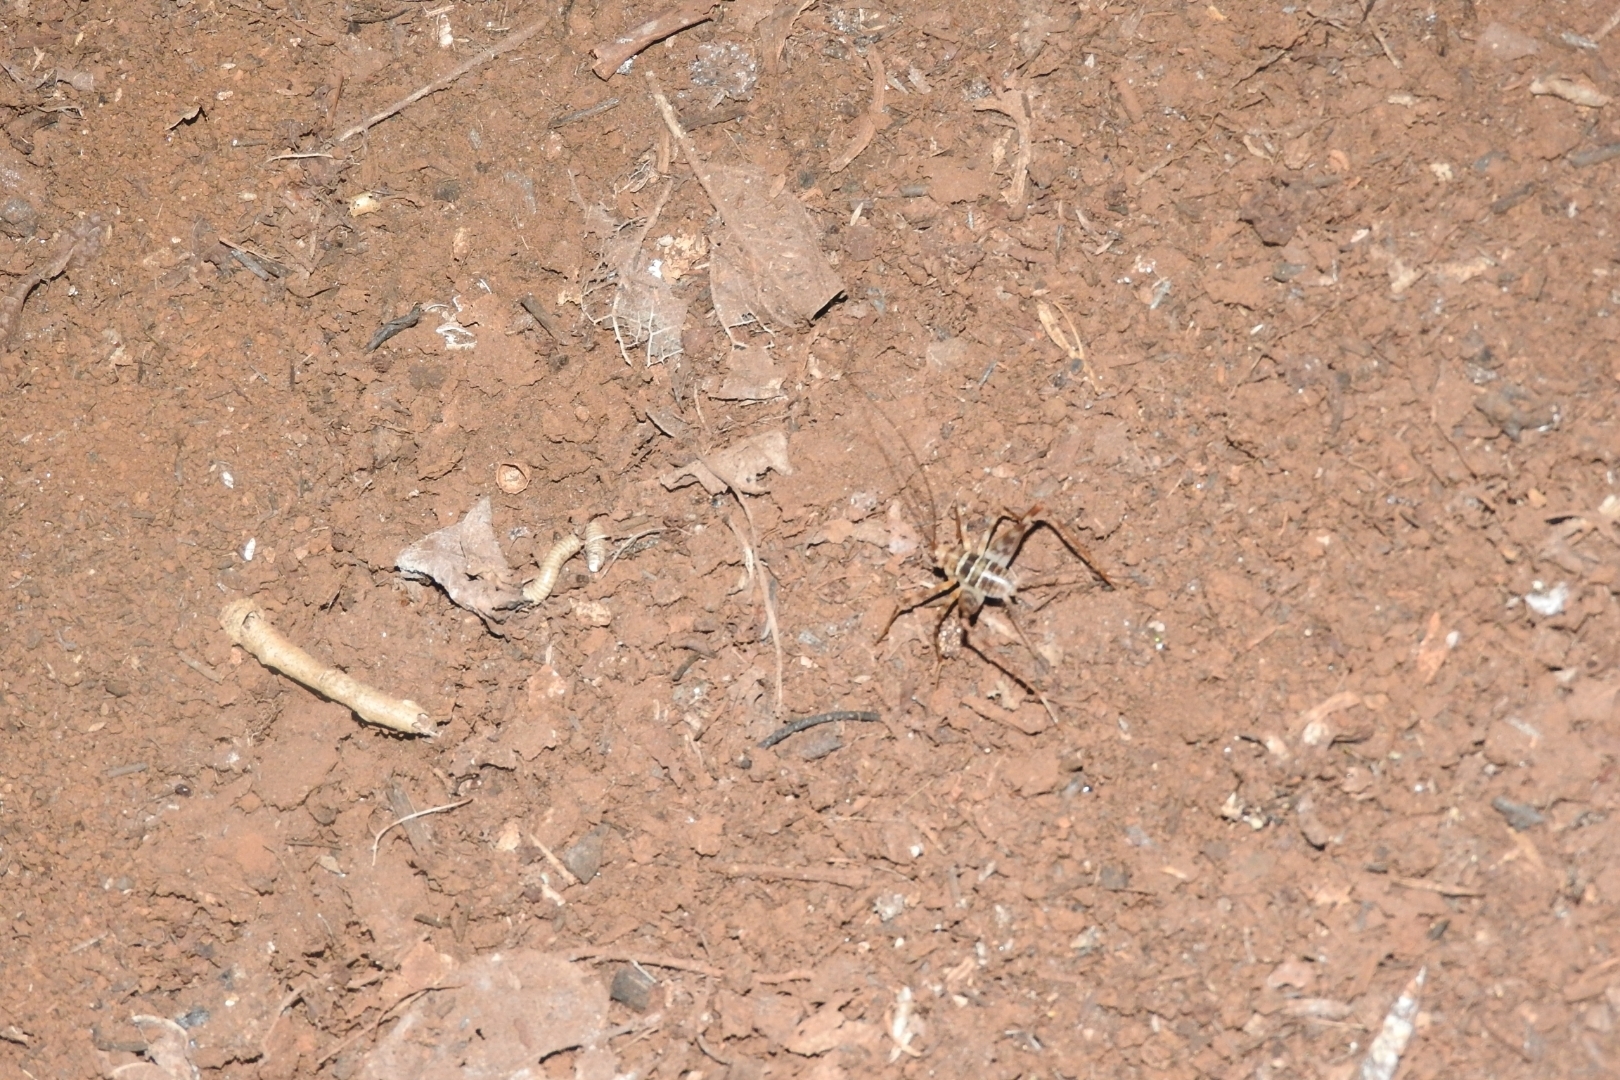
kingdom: Animalia
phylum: Arthropoda
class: Insecta
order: Orthoptera
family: Phalangopsidae
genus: Mayagryllus
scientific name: Mayagryllus yucatanus
